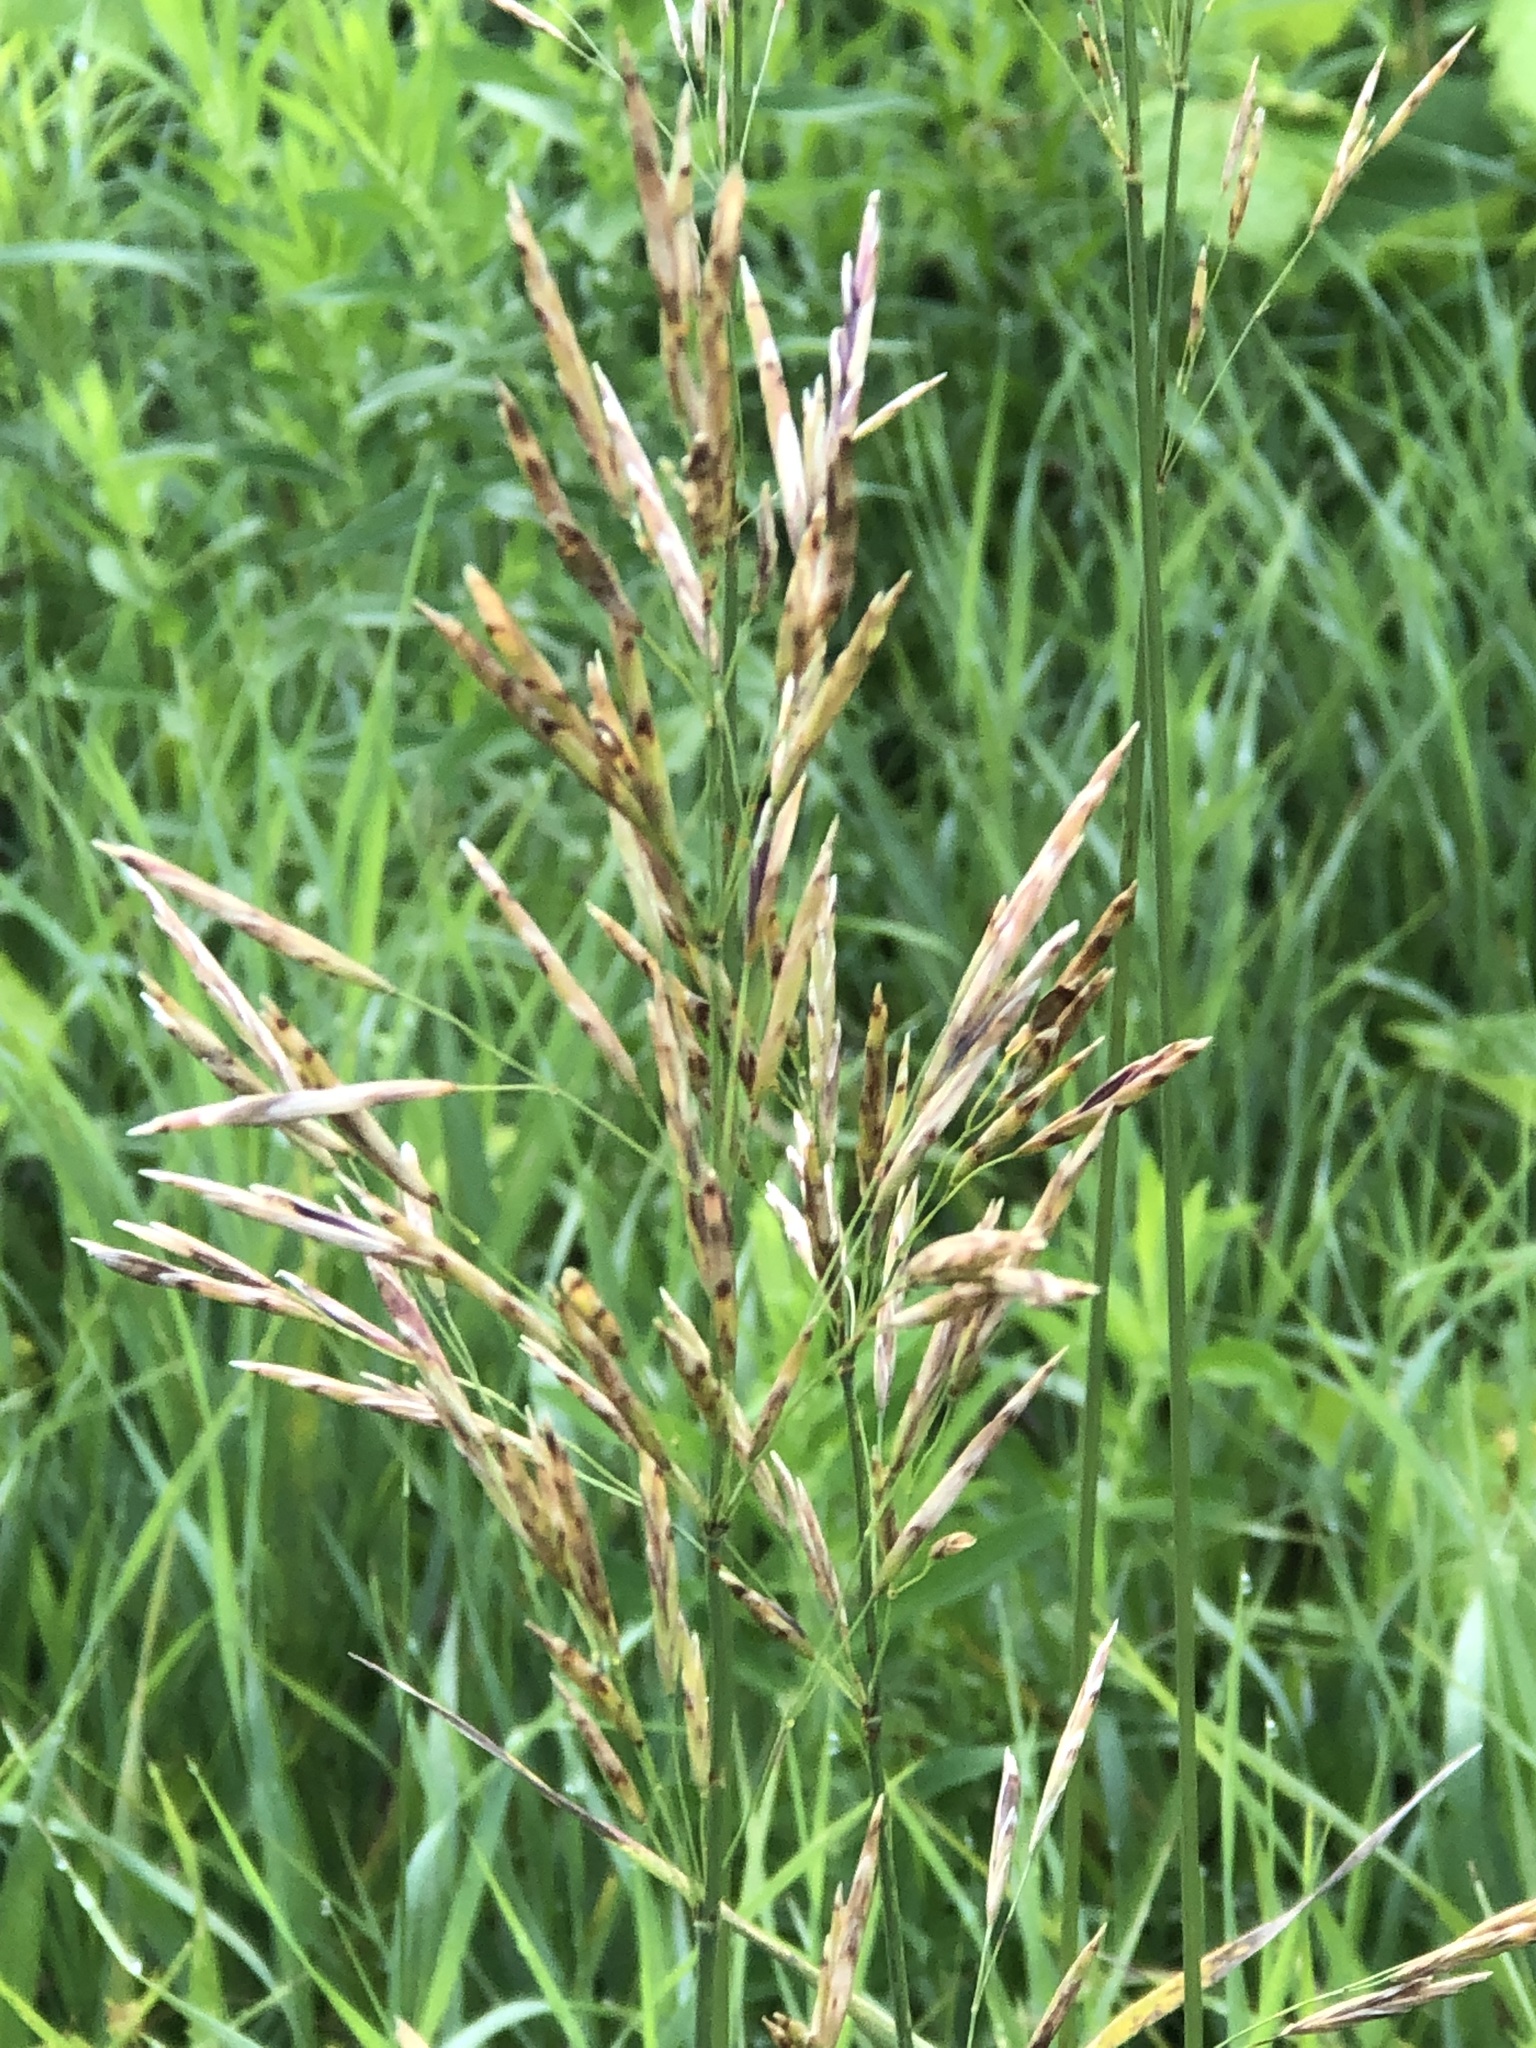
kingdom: Plantae
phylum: Tracheophyta
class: Liliopsida
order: Poales
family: Poaceae
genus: Bromus
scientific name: Bromus inermis
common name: Smooth brome
